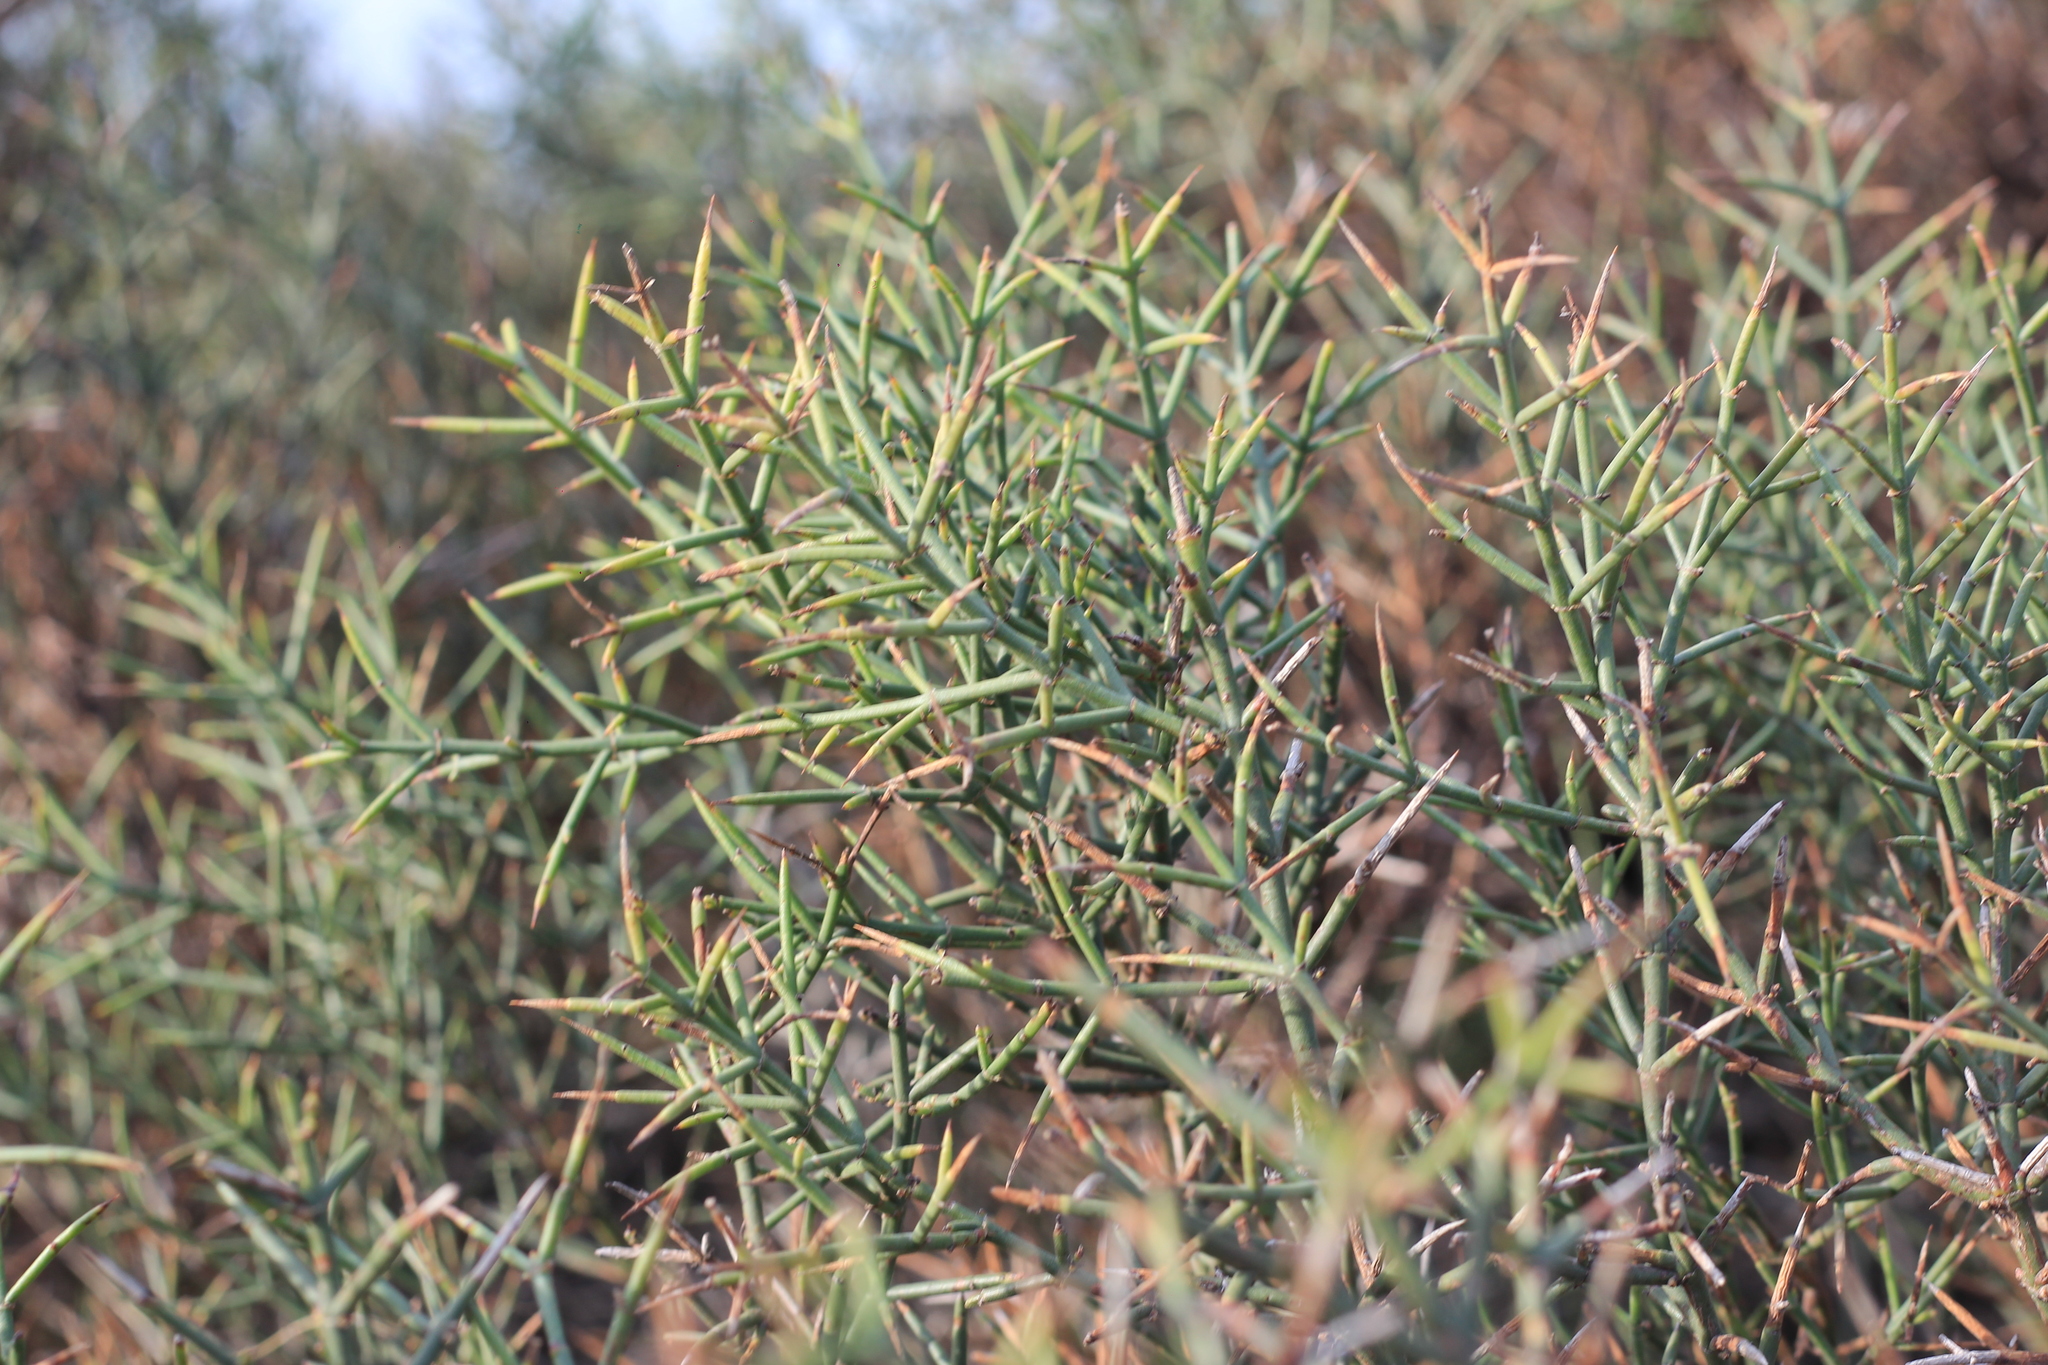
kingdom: Plantae
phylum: Tracheophyta
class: Magnoliopsida
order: Rosales
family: Rhamnaceae
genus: Discaria
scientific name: Discaria americana
